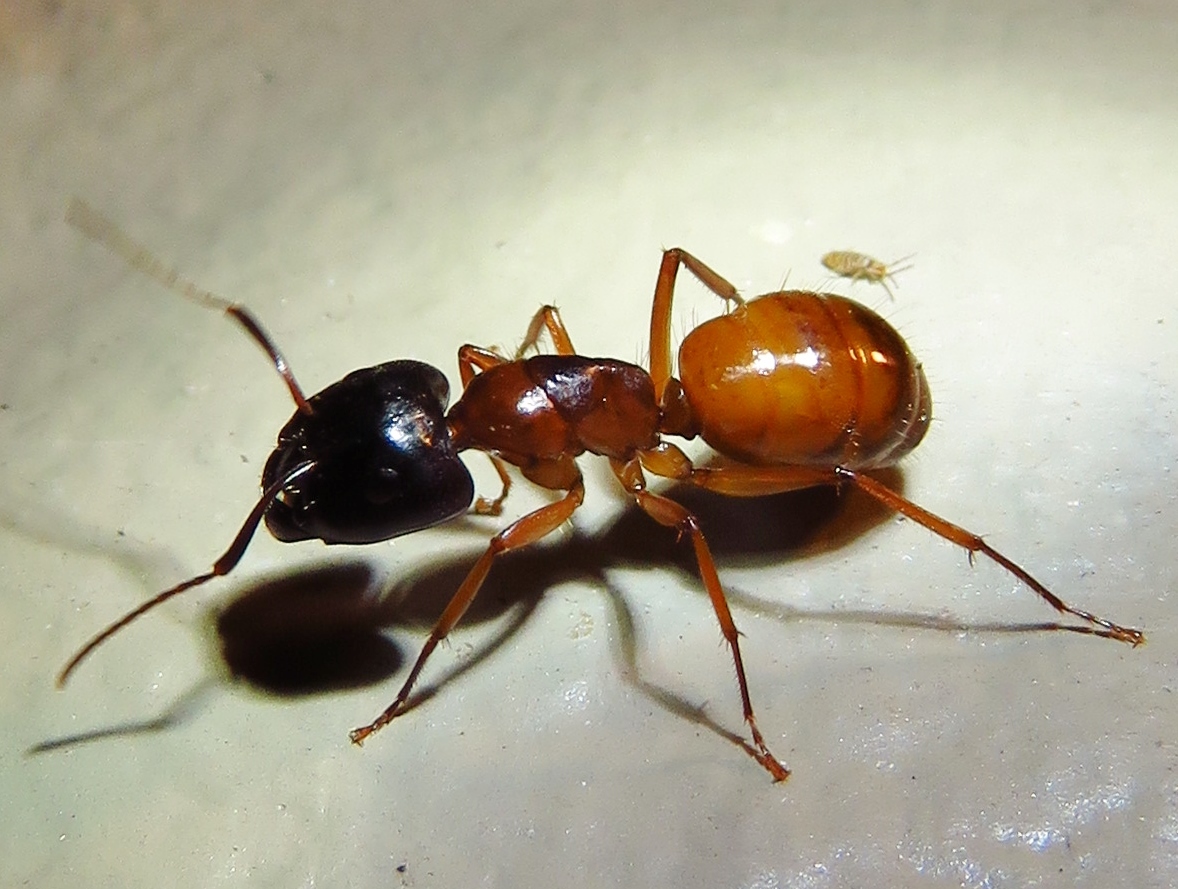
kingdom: Animalia
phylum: Arthropoda
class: Insecta
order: Hymenoptera
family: Formicidae
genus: Camponotus
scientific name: Camponotus sansabeanus
